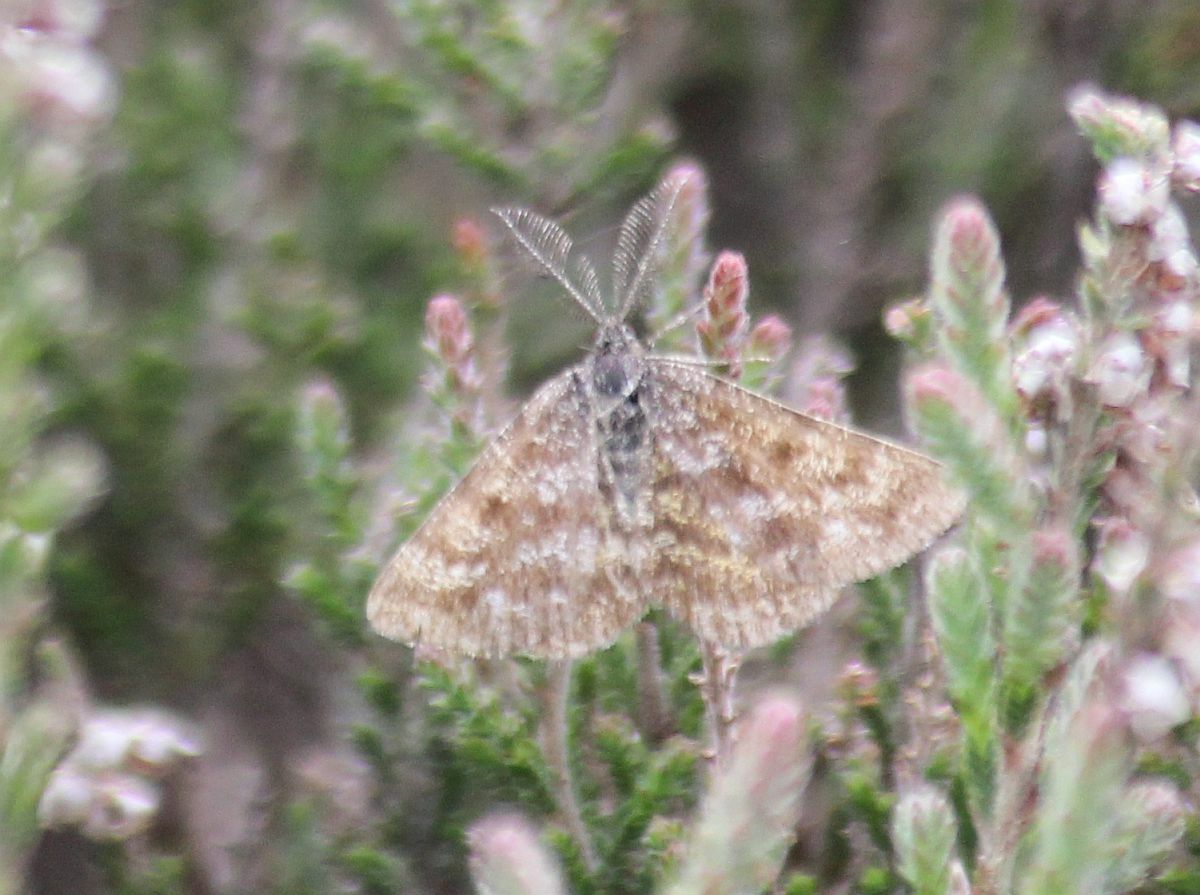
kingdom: Animalia
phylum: Arthropoda
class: Insecta
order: Lepidoptera
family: Geometridae
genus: Ematurga
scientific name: Ematurga atomaria
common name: Common heath
